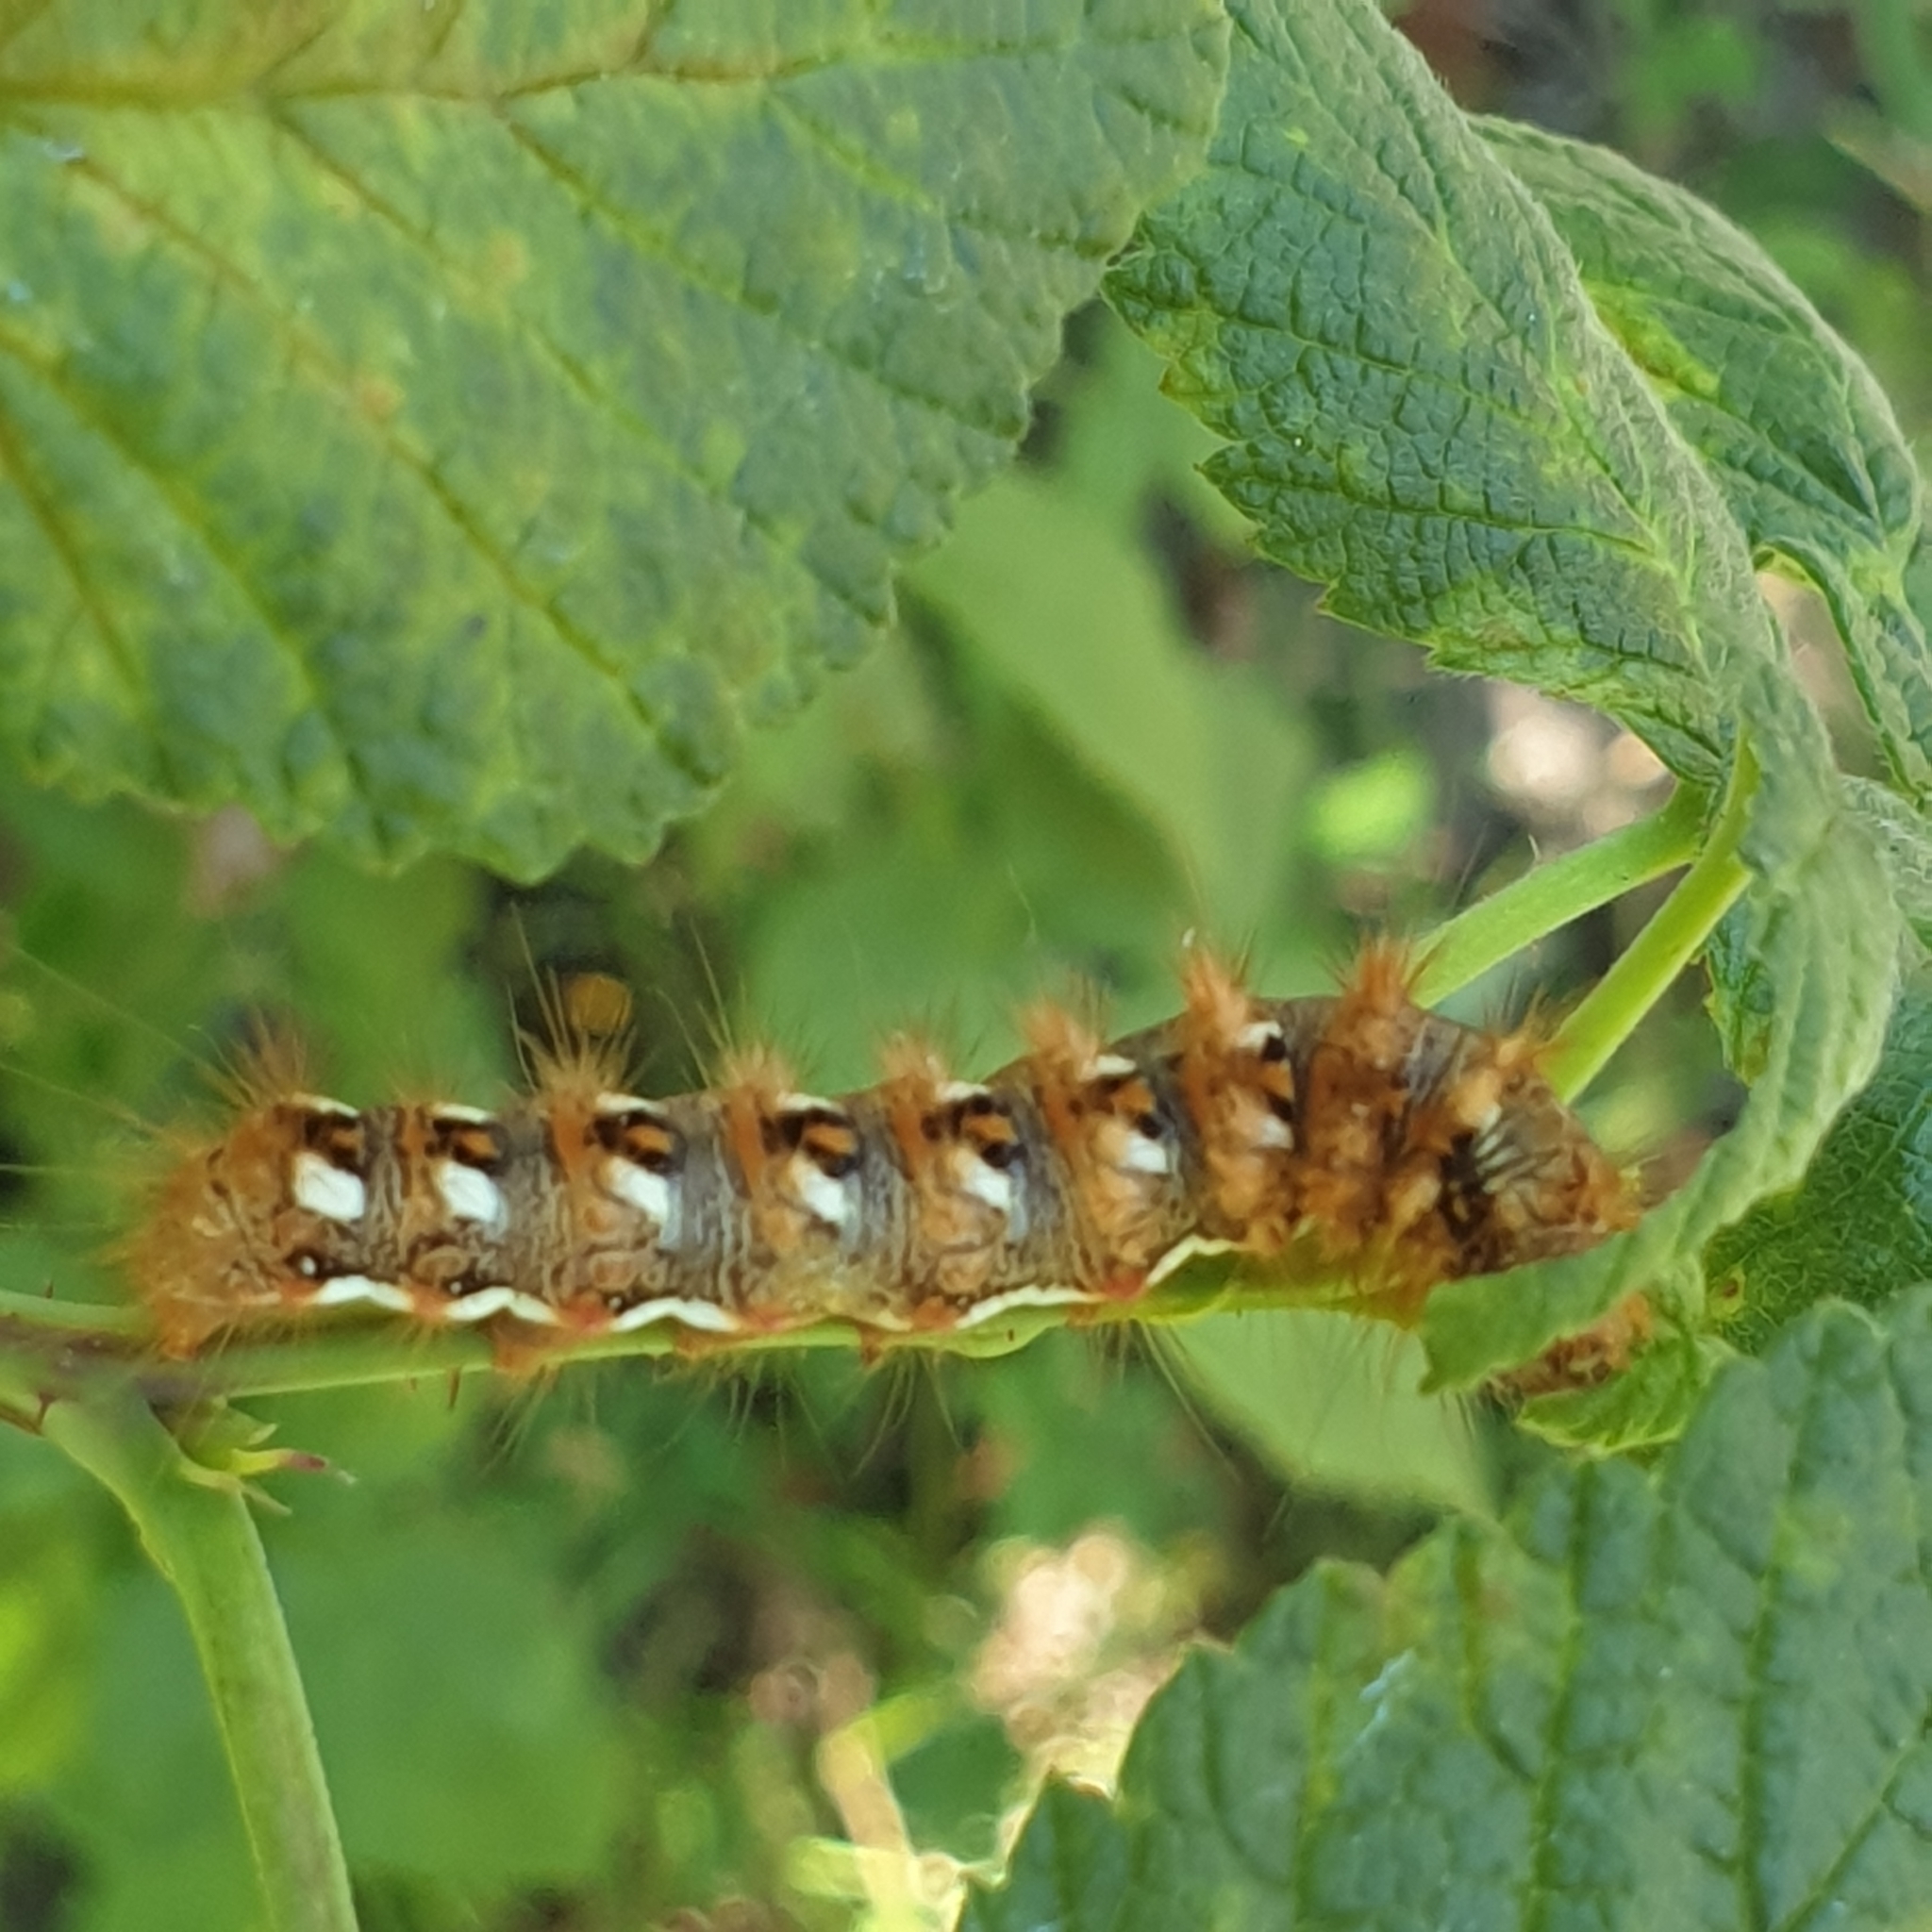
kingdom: Animalia
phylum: Arthropoda
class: Insecta
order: Lepidoptera
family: Noctuidae
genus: Acronicta
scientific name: Acronicta rumicis
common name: Knot grass
